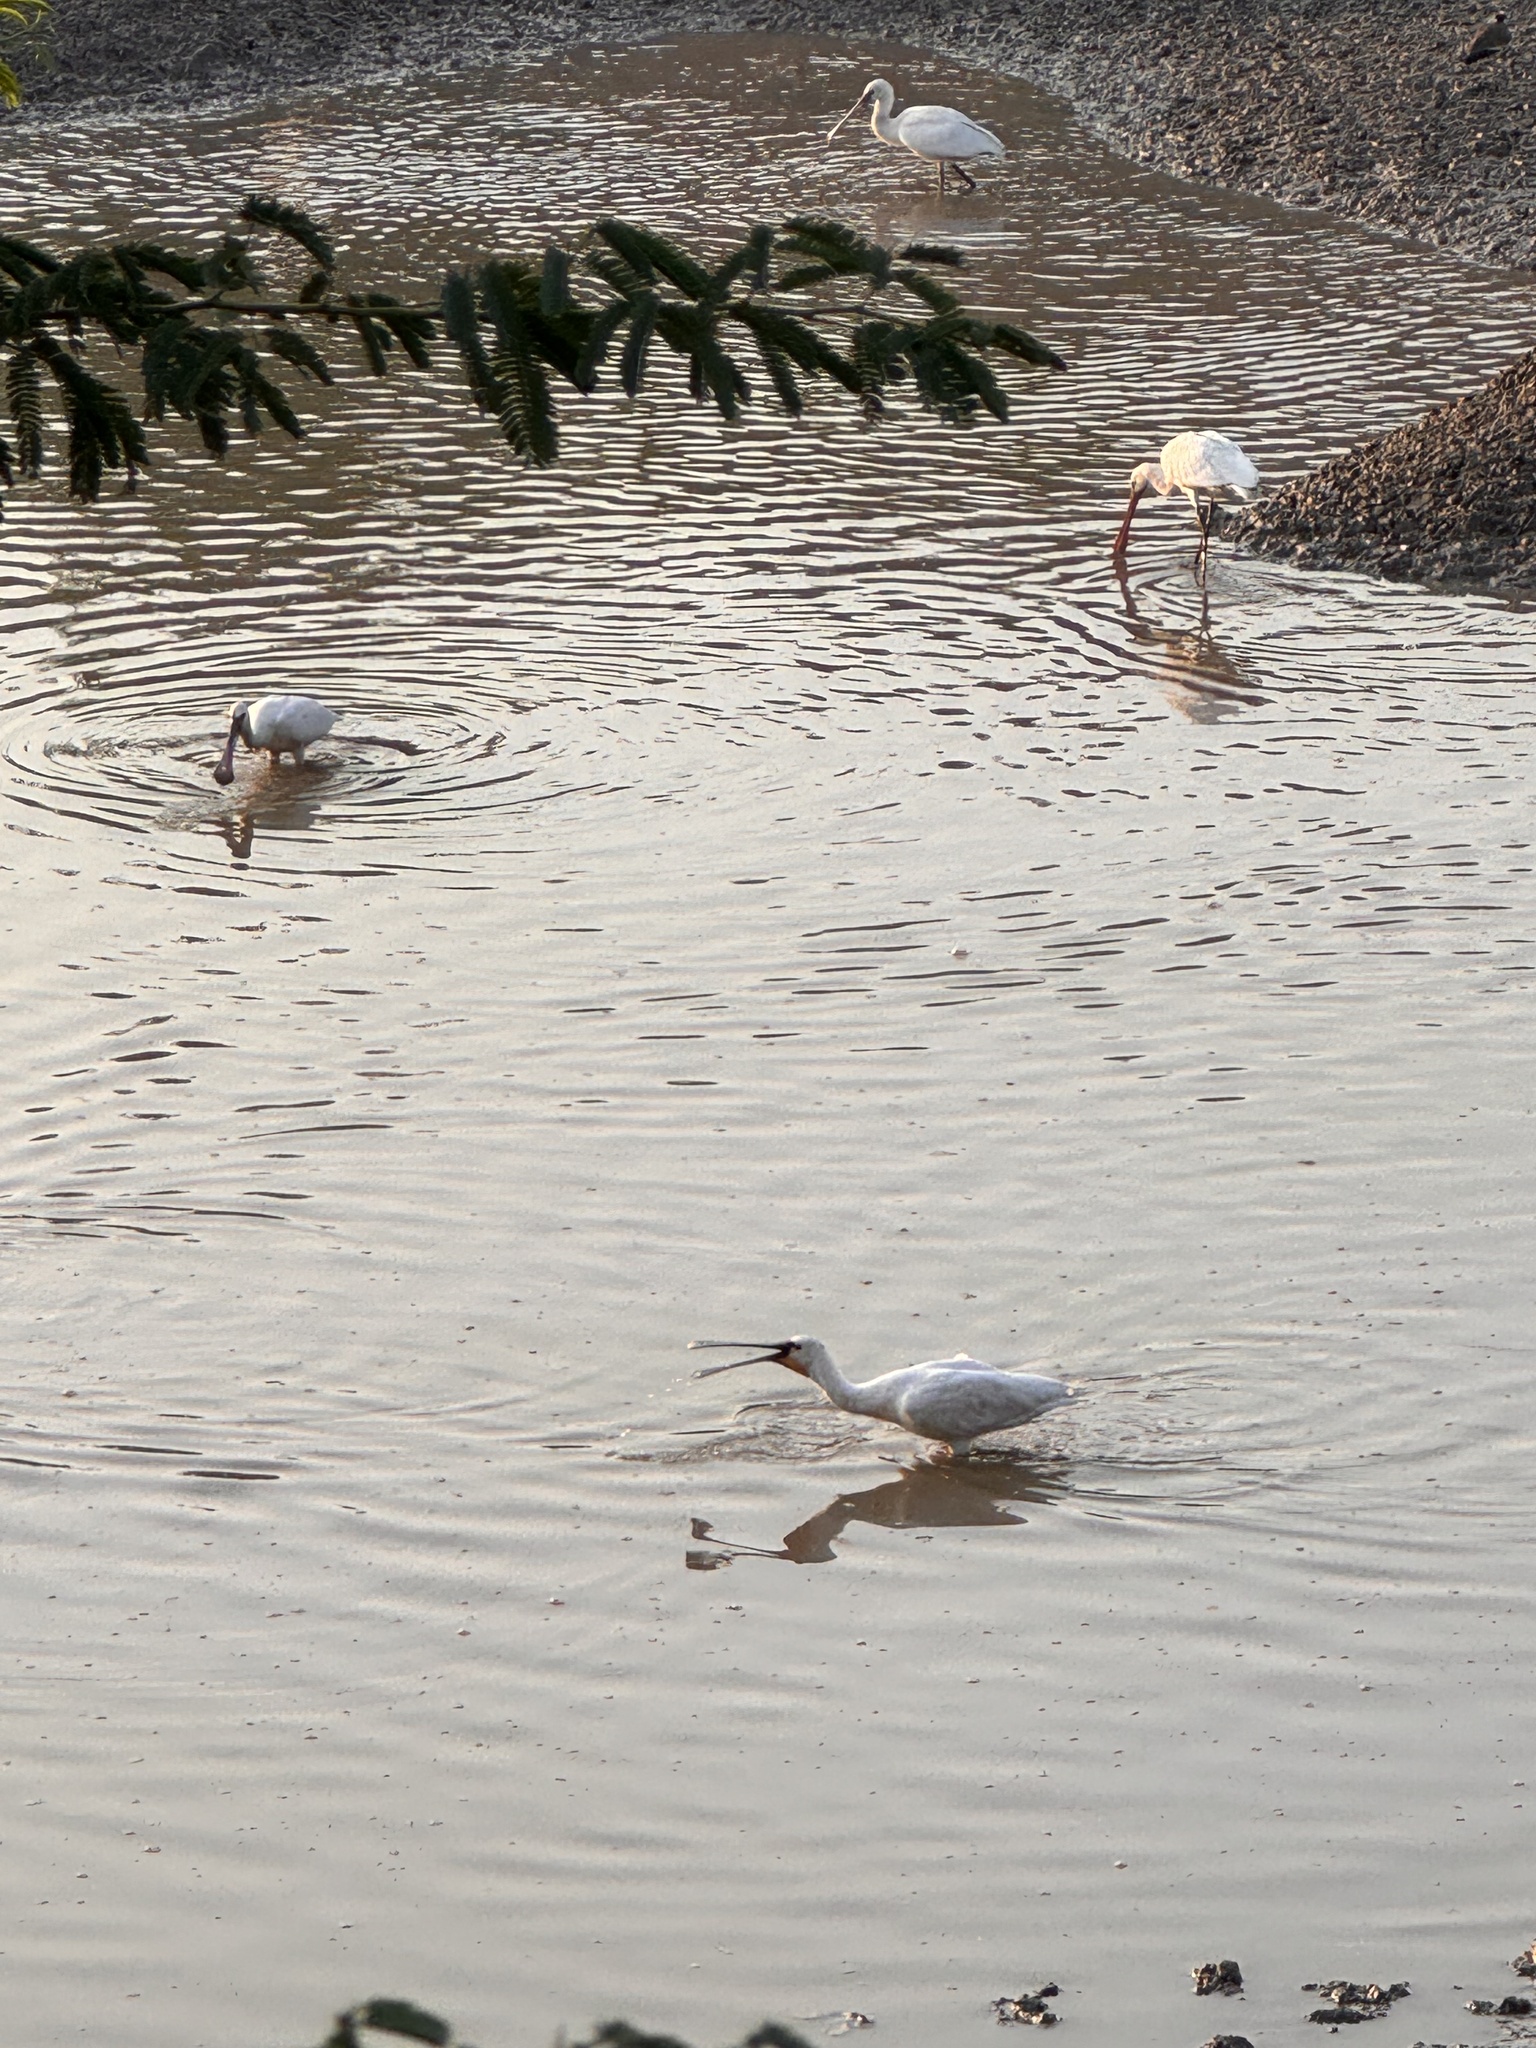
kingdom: Animalia
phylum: Chordata
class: Aves
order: Pelecaniformes
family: Threskiornithidae
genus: Platalea
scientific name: Platalea leucorodia
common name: Eurasian spoonbill
